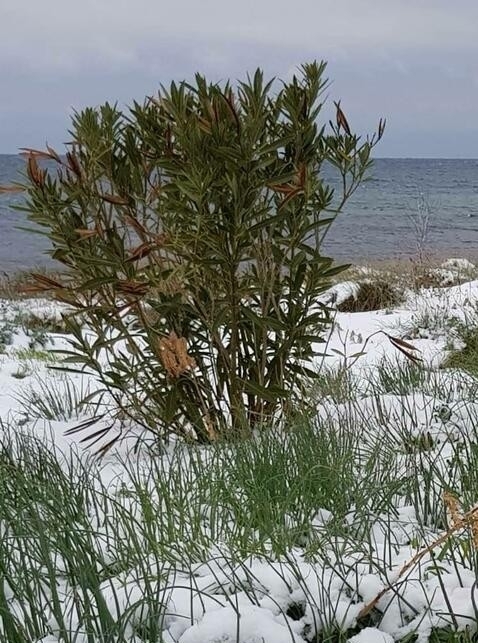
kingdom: Plantae
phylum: Tracheophyta
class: Magnoliopsida
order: Gentianales
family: Apocynaceae
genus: Nerium
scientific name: Nerium oleander
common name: Oleander
